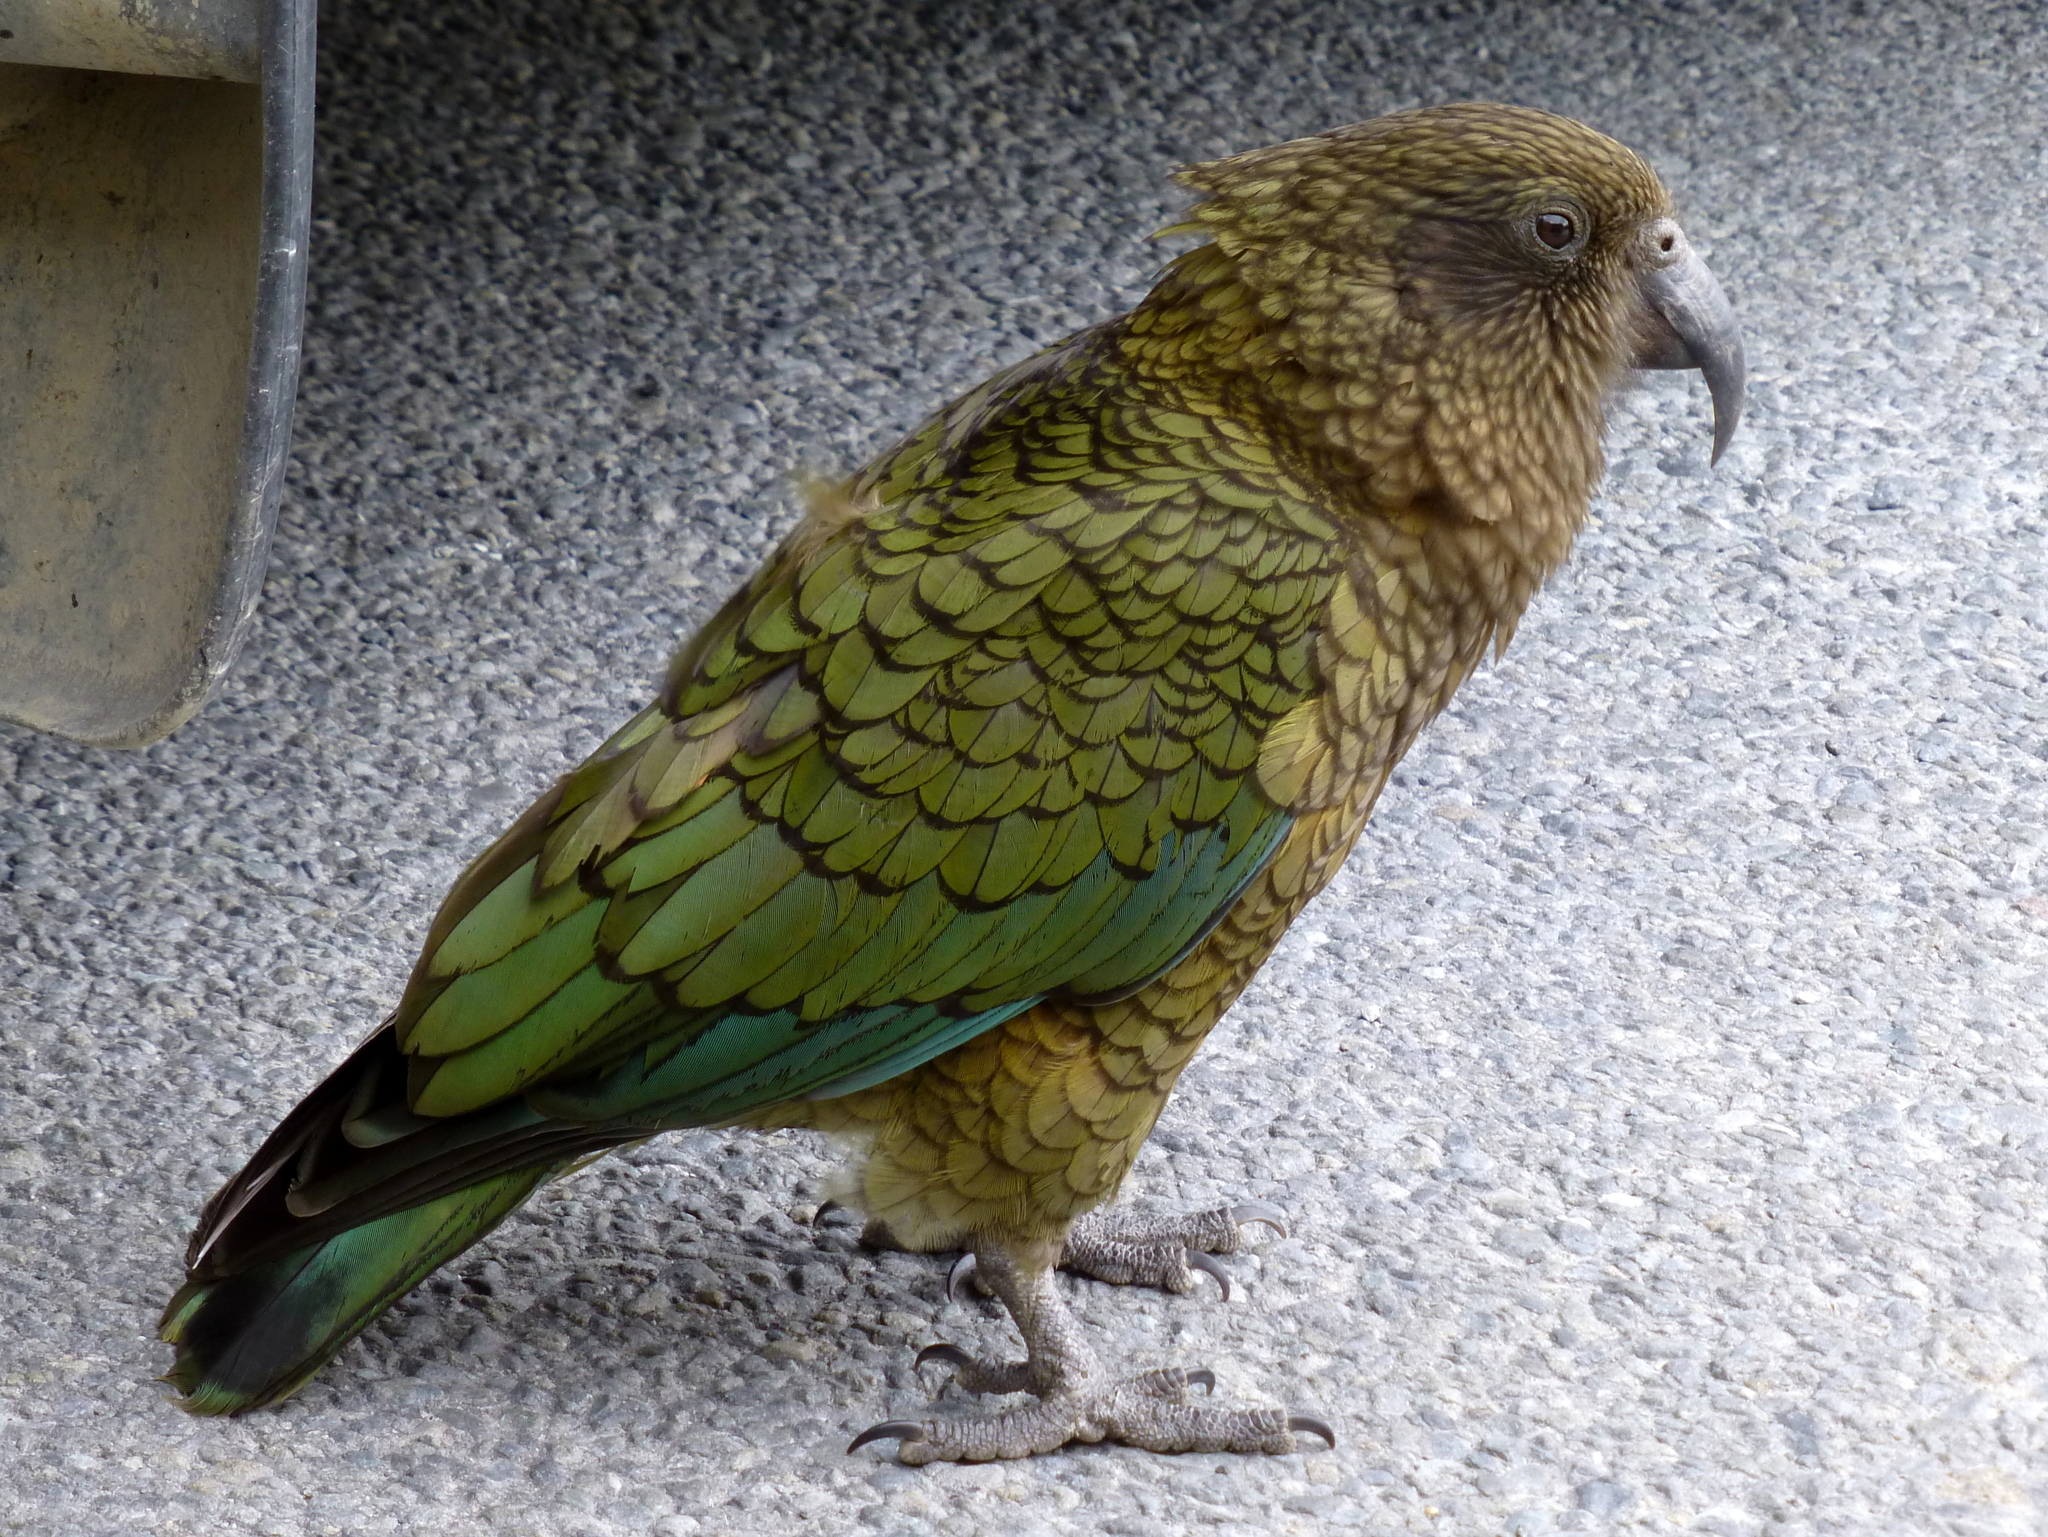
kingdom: Animalia
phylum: Chordata
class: Aves
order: Psittaciformes
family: Psittacidae
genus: Nestor
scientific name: Nestor notabilis
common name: Kea
